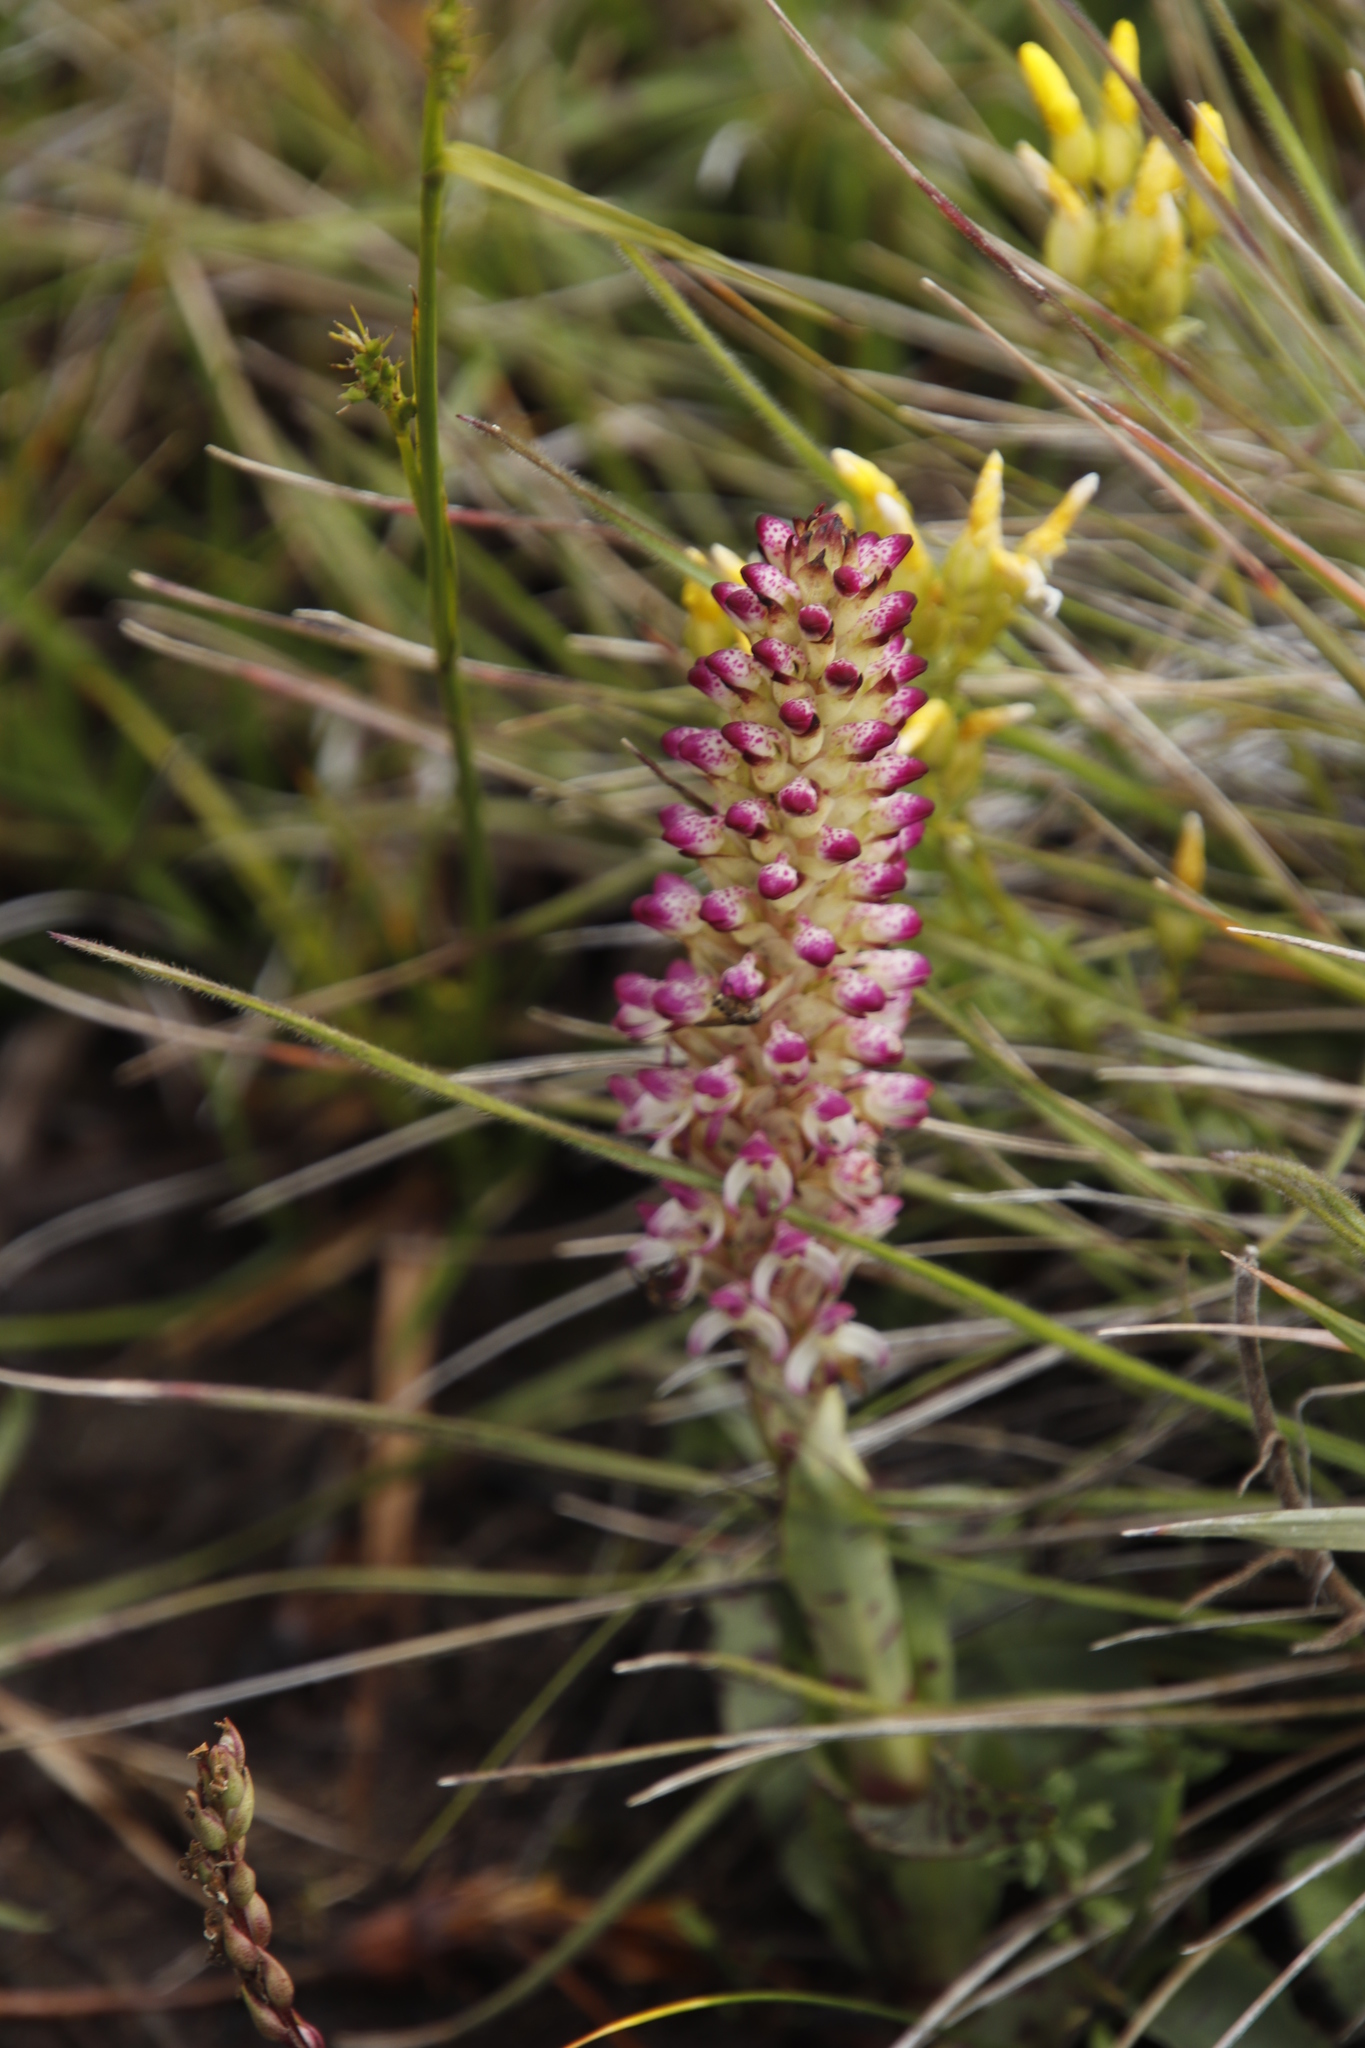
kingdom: Plantae
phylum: Tracheophyta
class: Liliopsida
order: Asparagales
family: Orchidaceae
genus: Disa
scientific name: Disa fragrans
